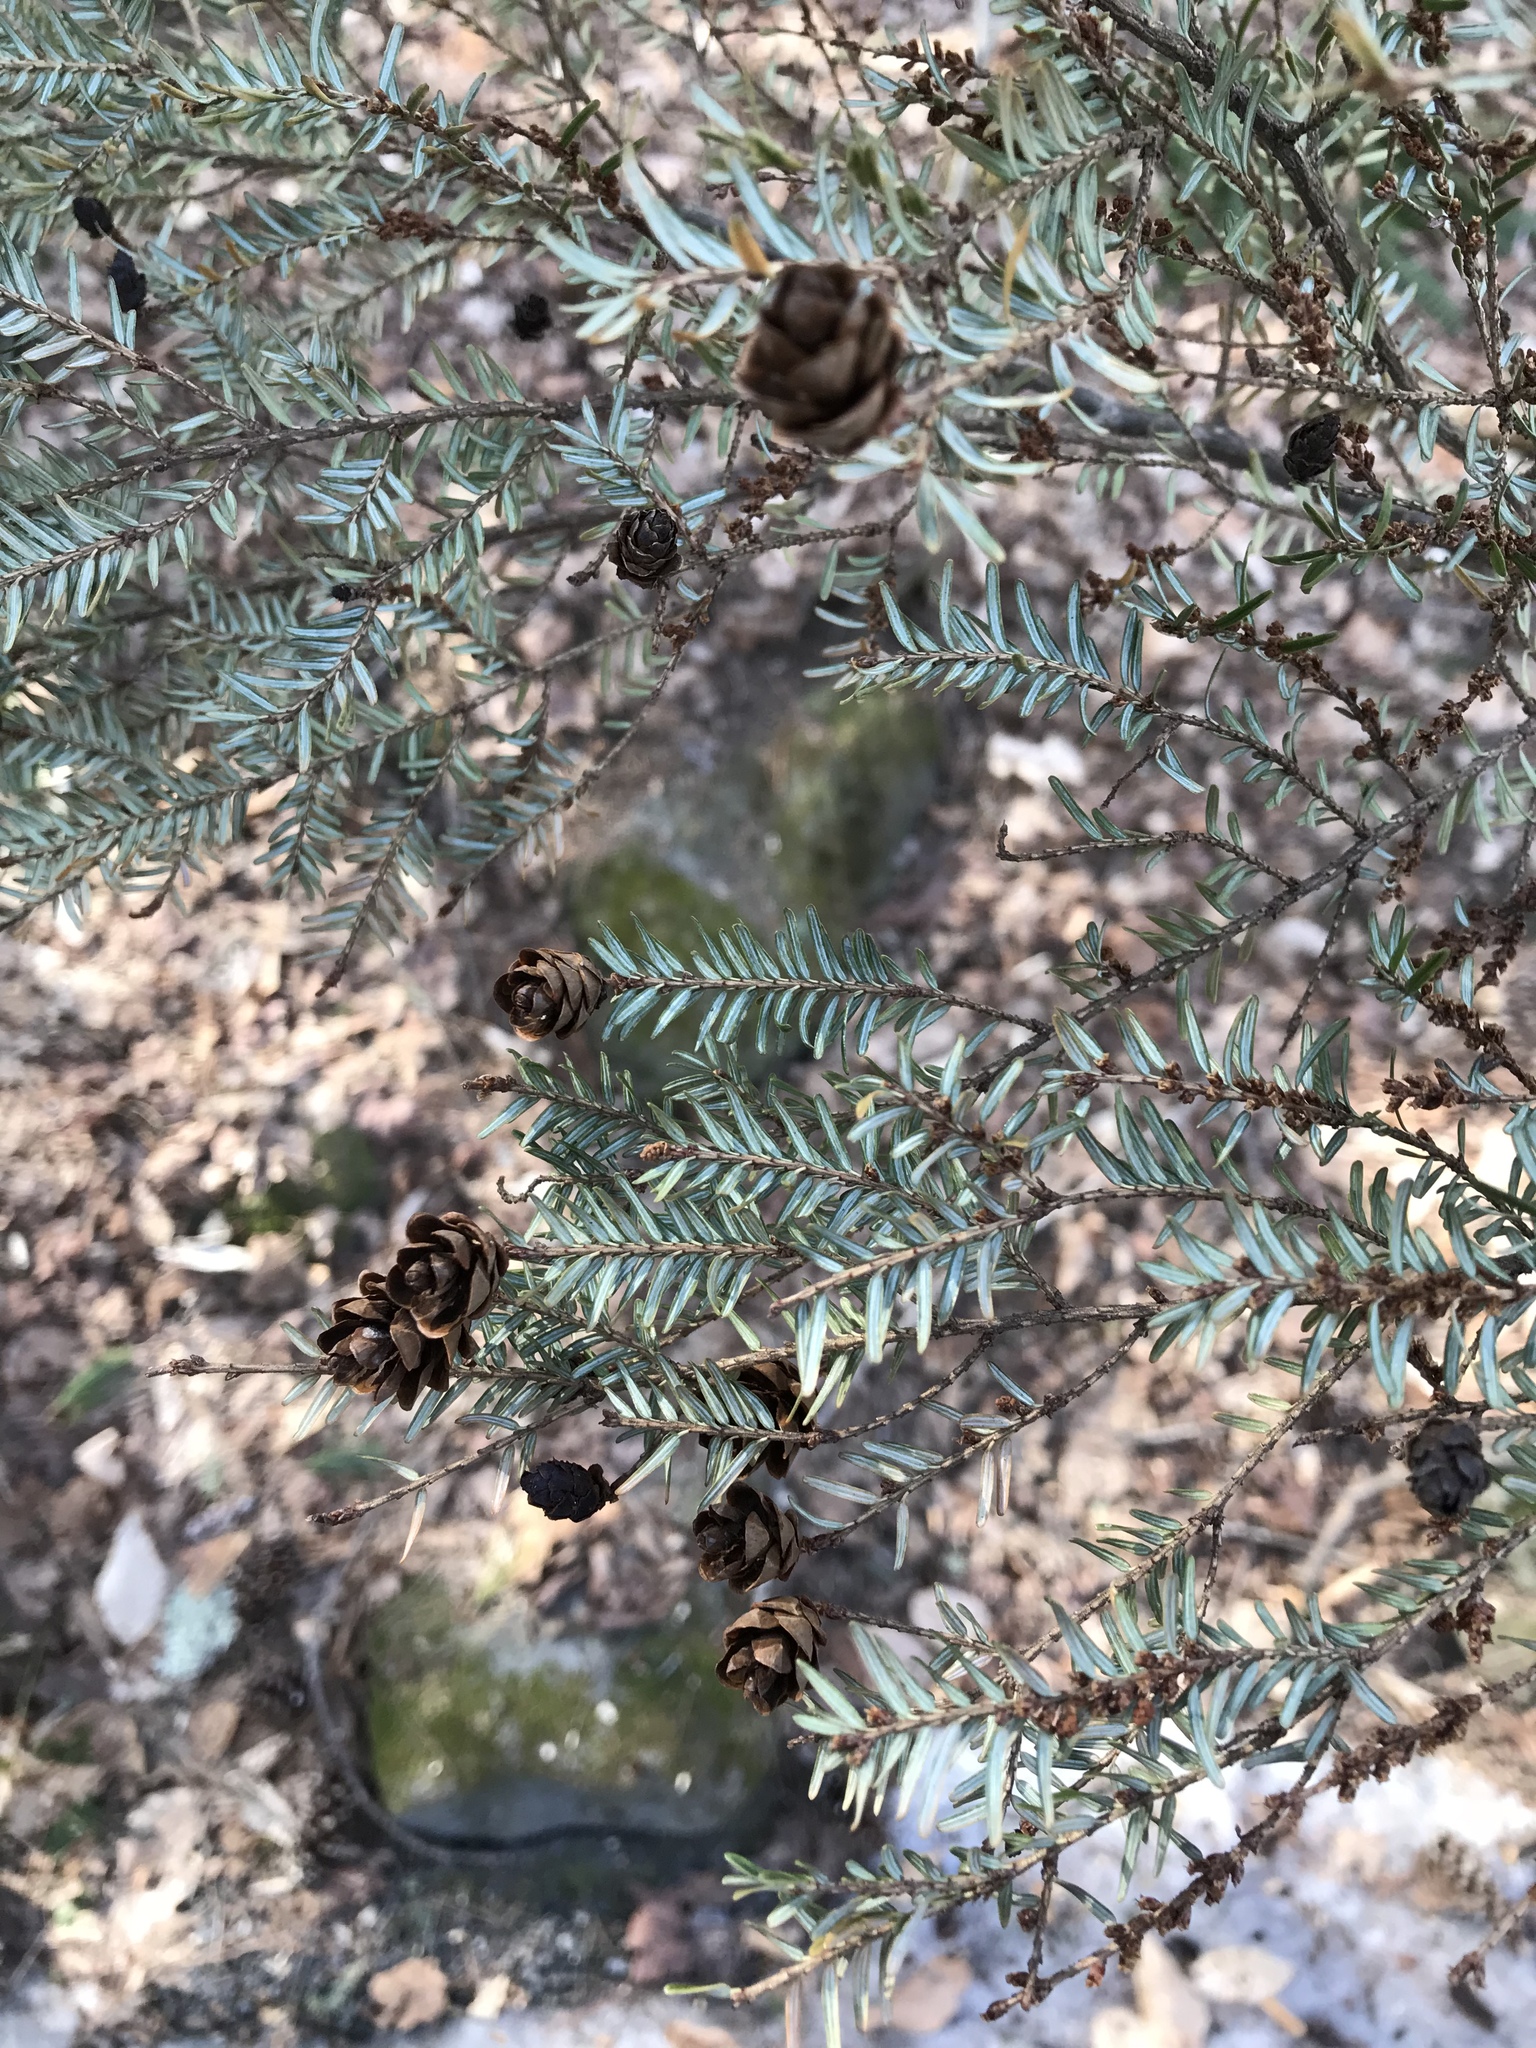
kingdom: Plantae
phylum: Tracheophyta
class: Pinopsida
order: Pinales
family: Pinaceae
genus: Tsuga
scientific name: Tsuga canadensis
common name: Eastern hemlock
